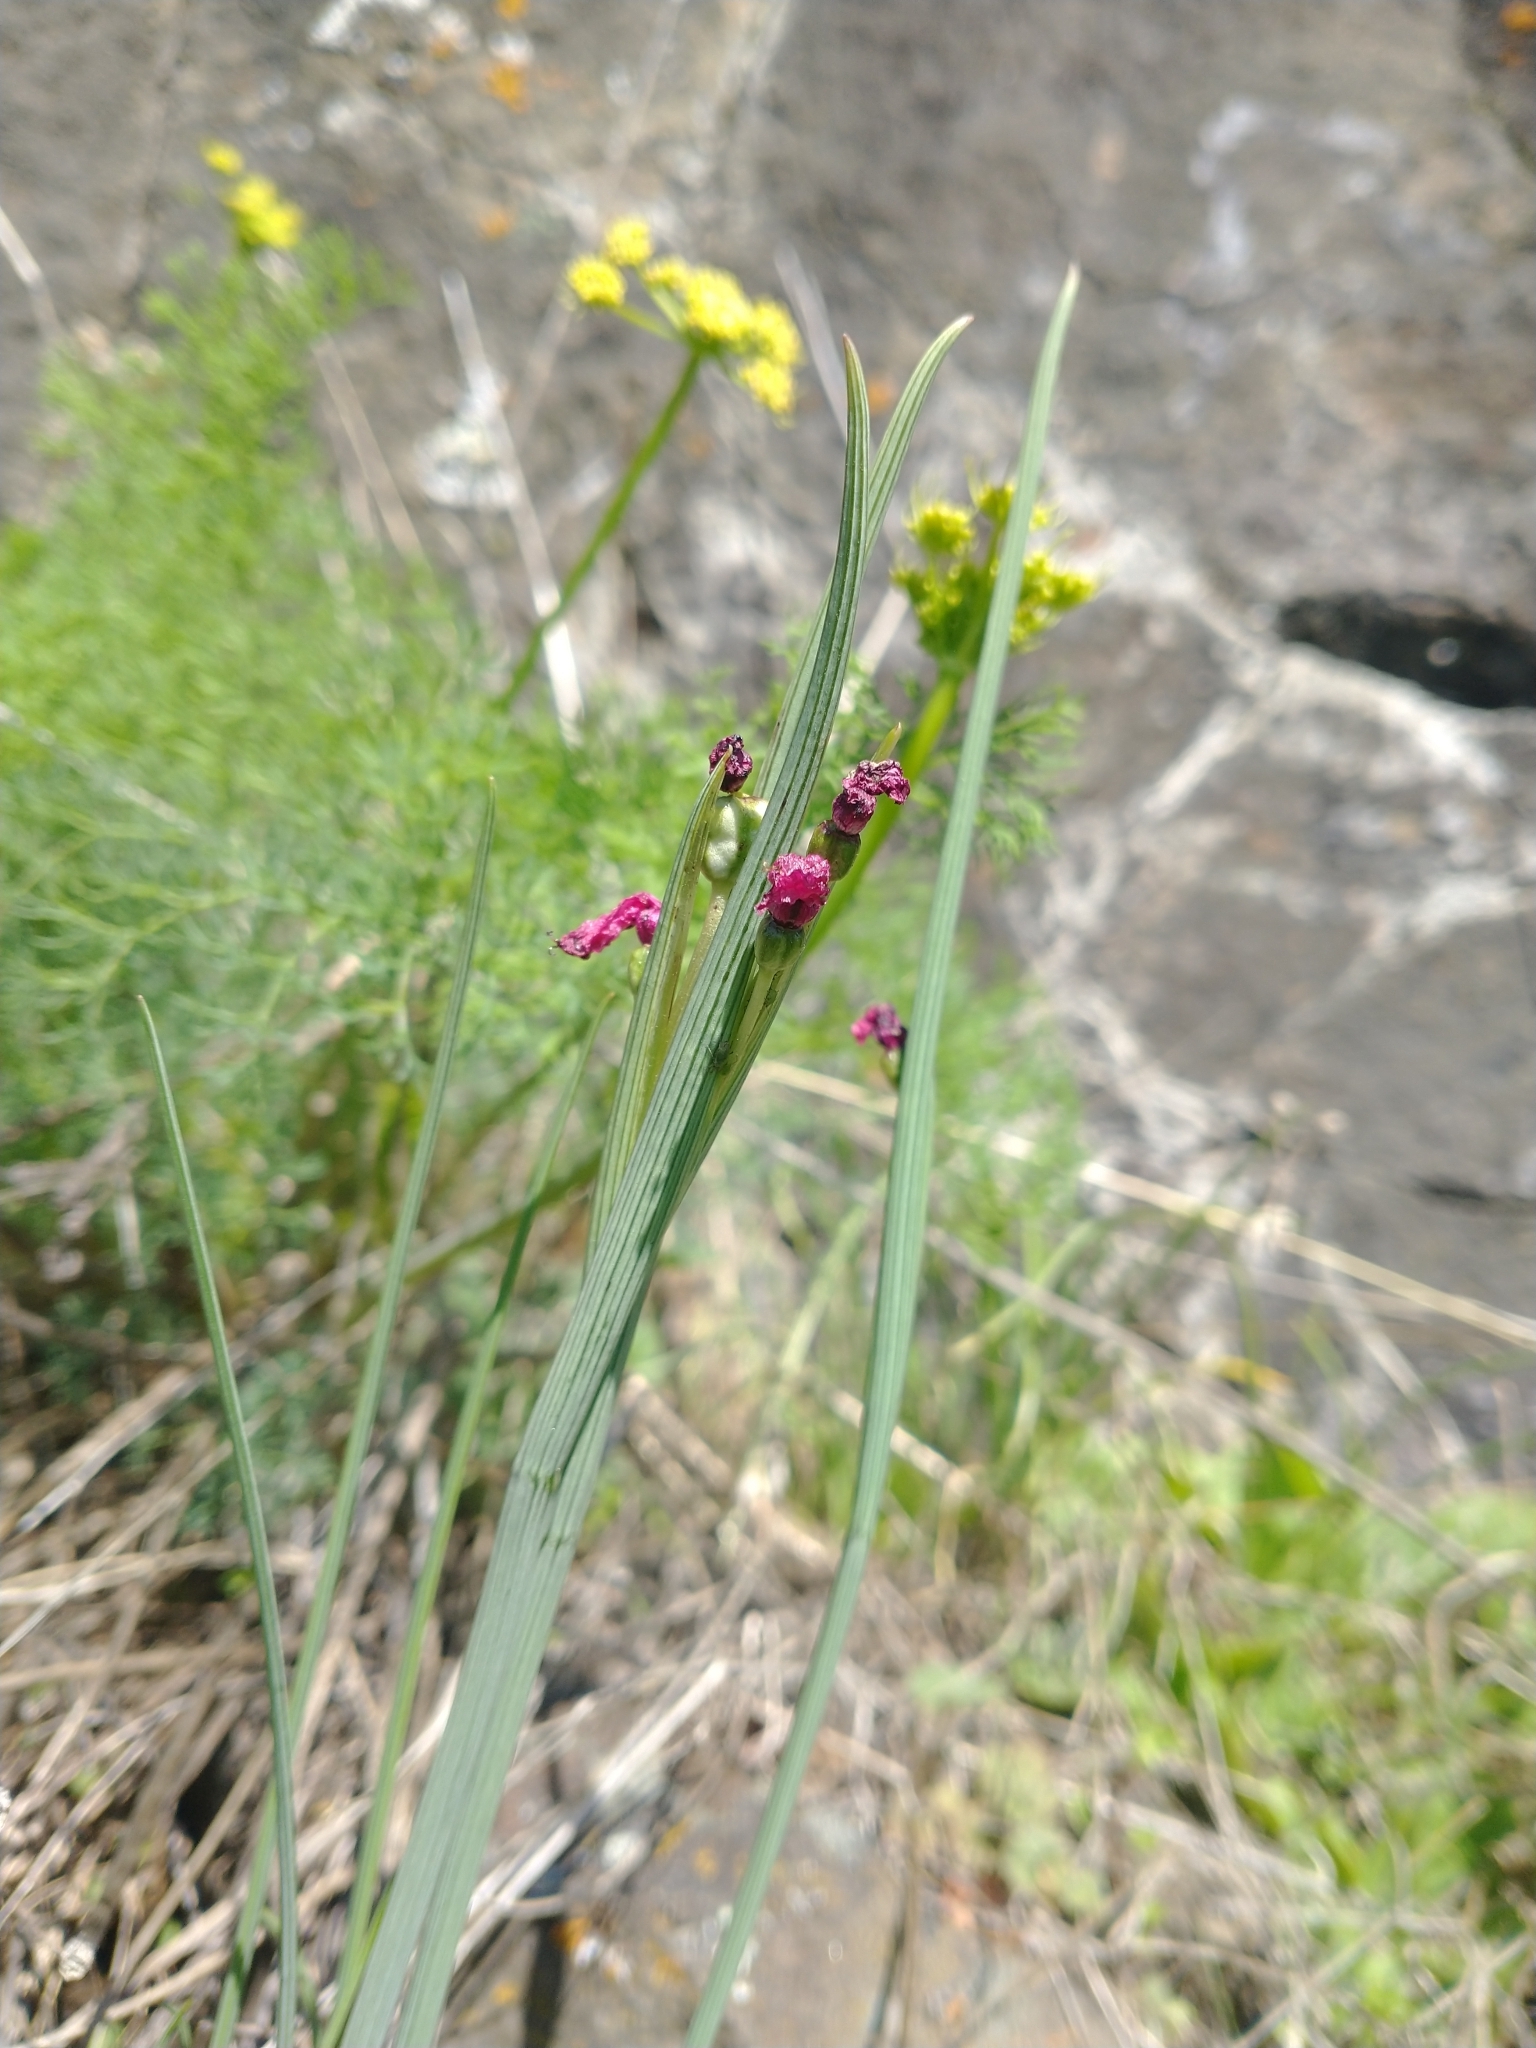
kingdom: Plantae
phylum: Tracheophyta
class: Liliopsida
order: Asparagales
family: Iridaceae
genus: Olsynium
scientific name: Olsynium douglasii
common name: Douglas' grasswidow
